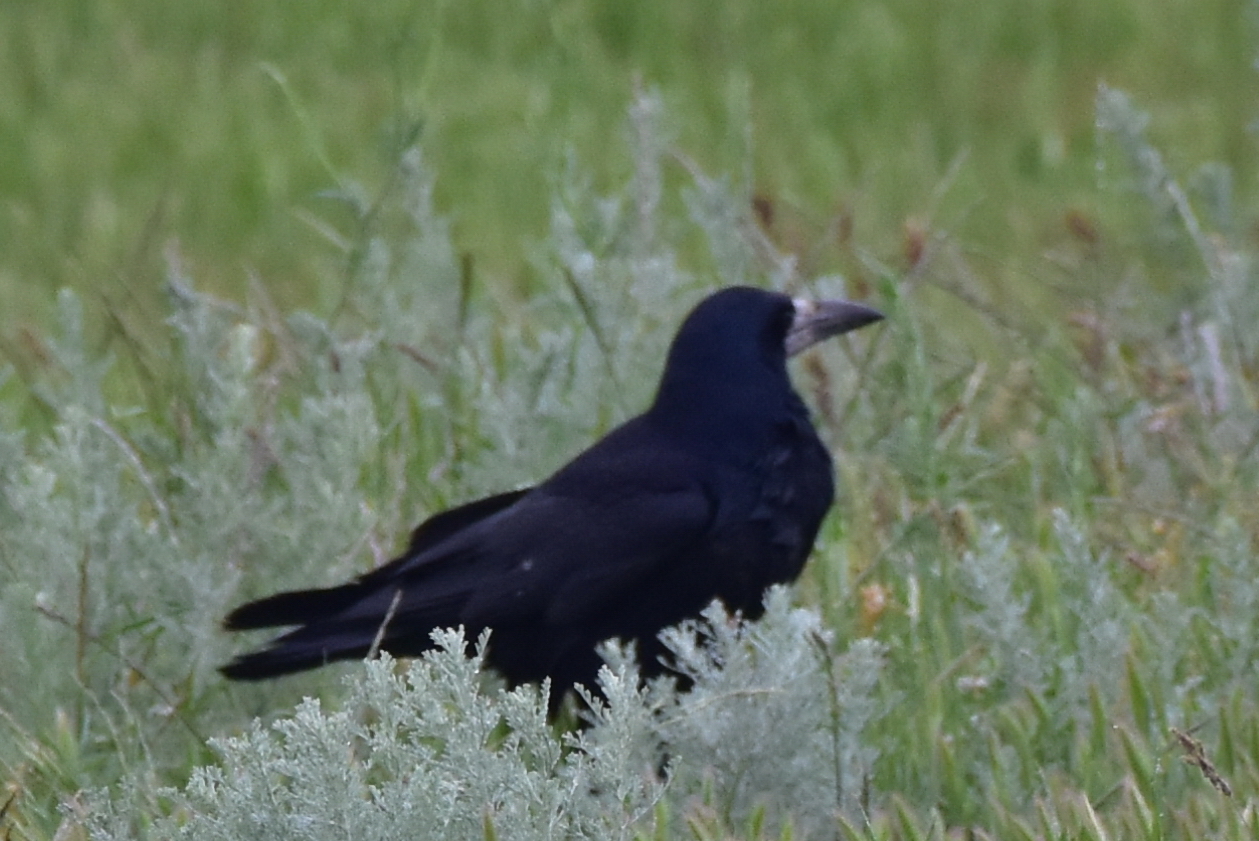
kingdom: Animalia
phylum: Chordata
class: Aves
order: Passeriformes
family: Corvidae
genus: Corvus
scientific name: Corvus frugilegus
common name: Rook
